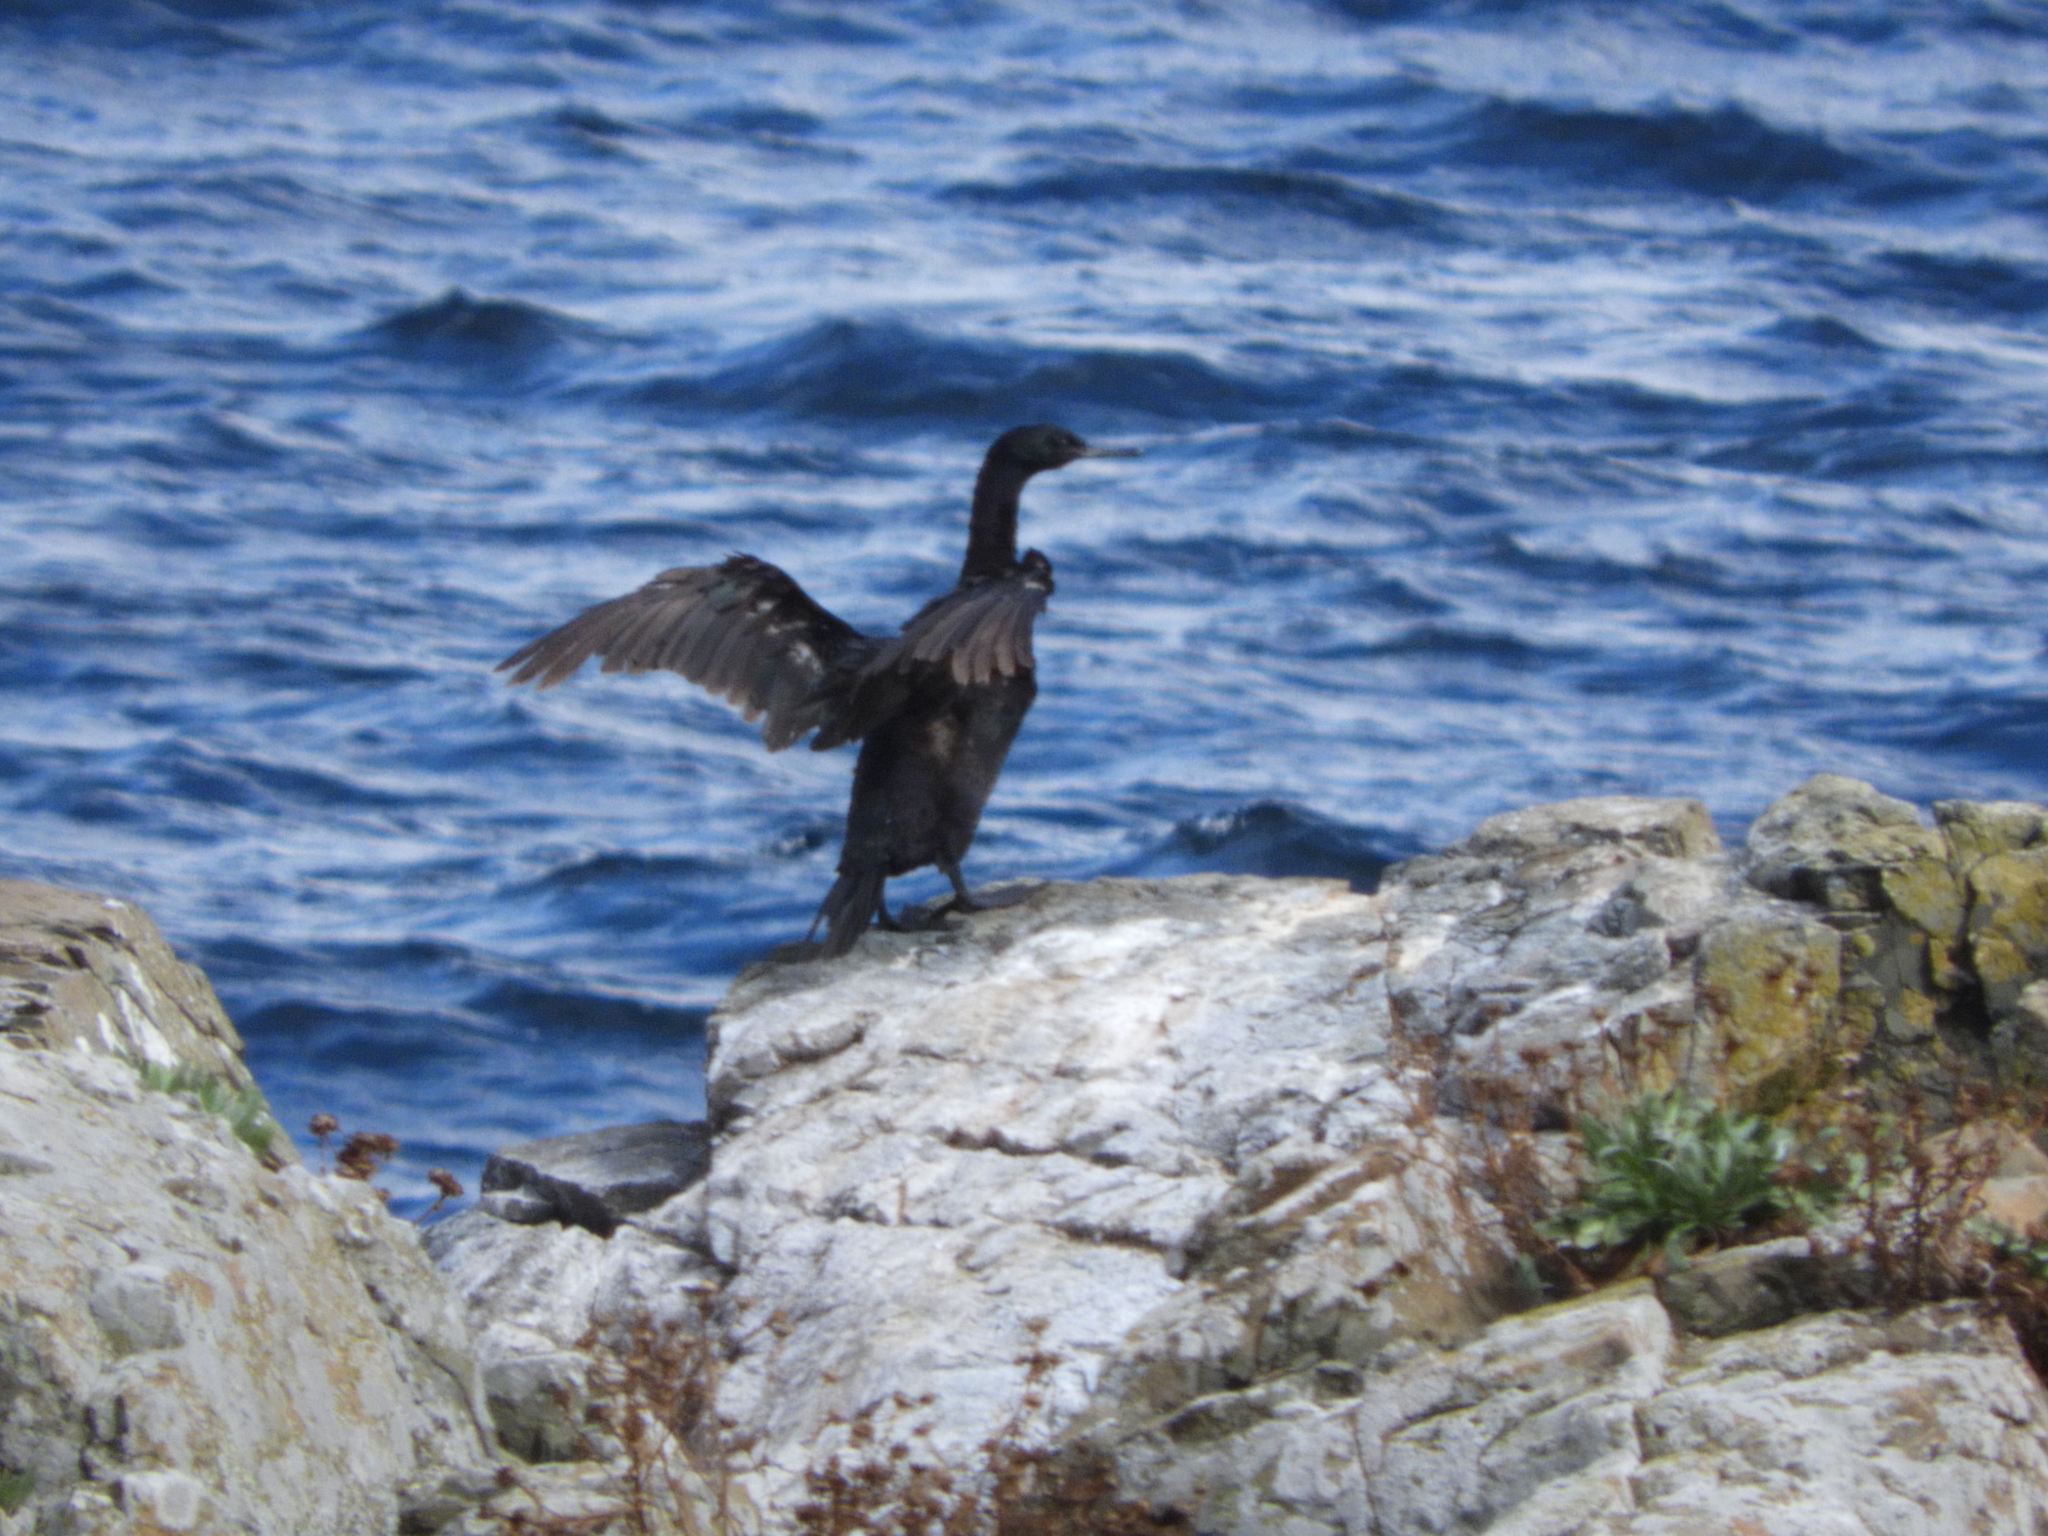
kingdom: Animalia
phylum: Chordata
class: Aves
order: Suliformes
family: Phalacrocoracidae
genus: Phalacrocorax
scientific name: Phalacrocorax pelagicus
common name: Pelagic cormorant
